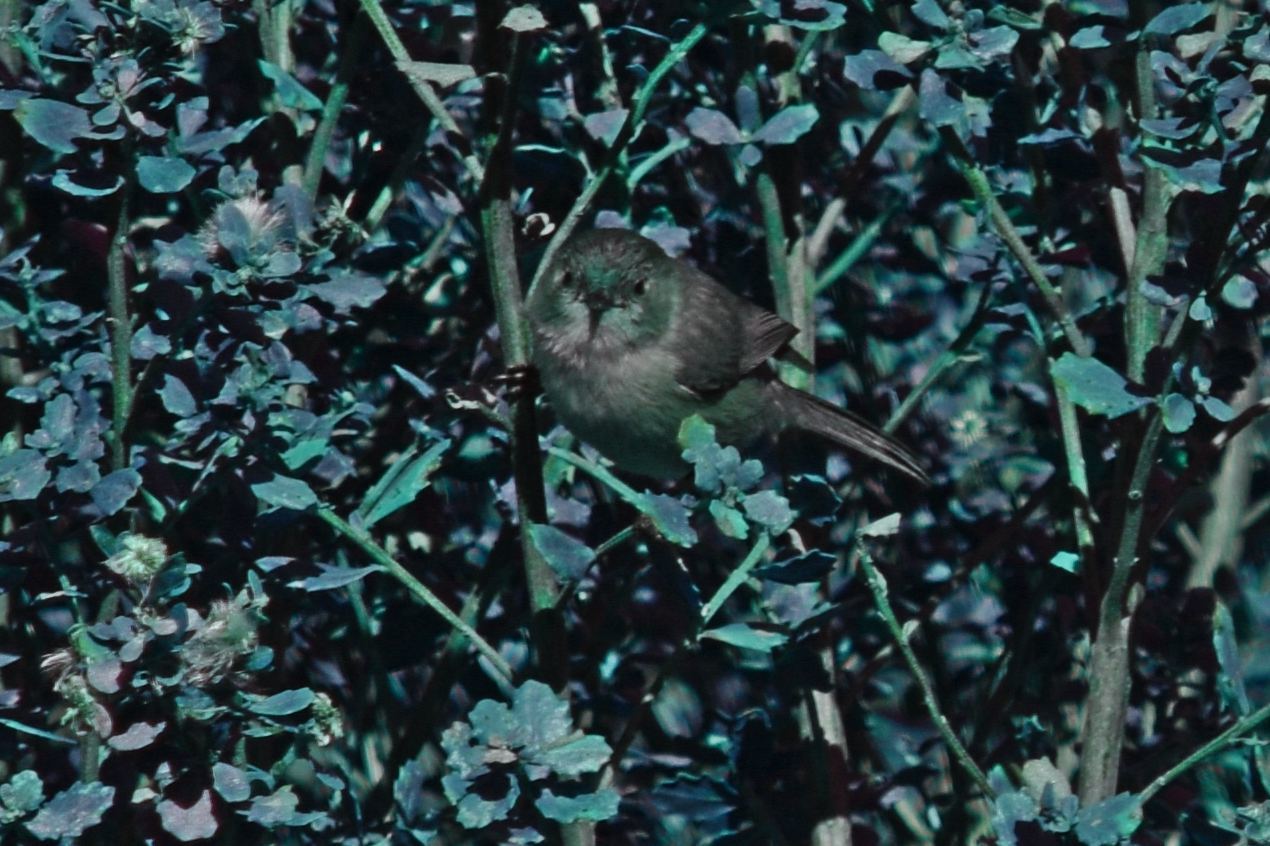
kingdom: Animalia
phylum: Chordata
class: Aves
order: Passeriformes
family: Aegithalidae
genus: Psaltriparus
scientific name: Psaltriparus minimus
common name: American bushtit
